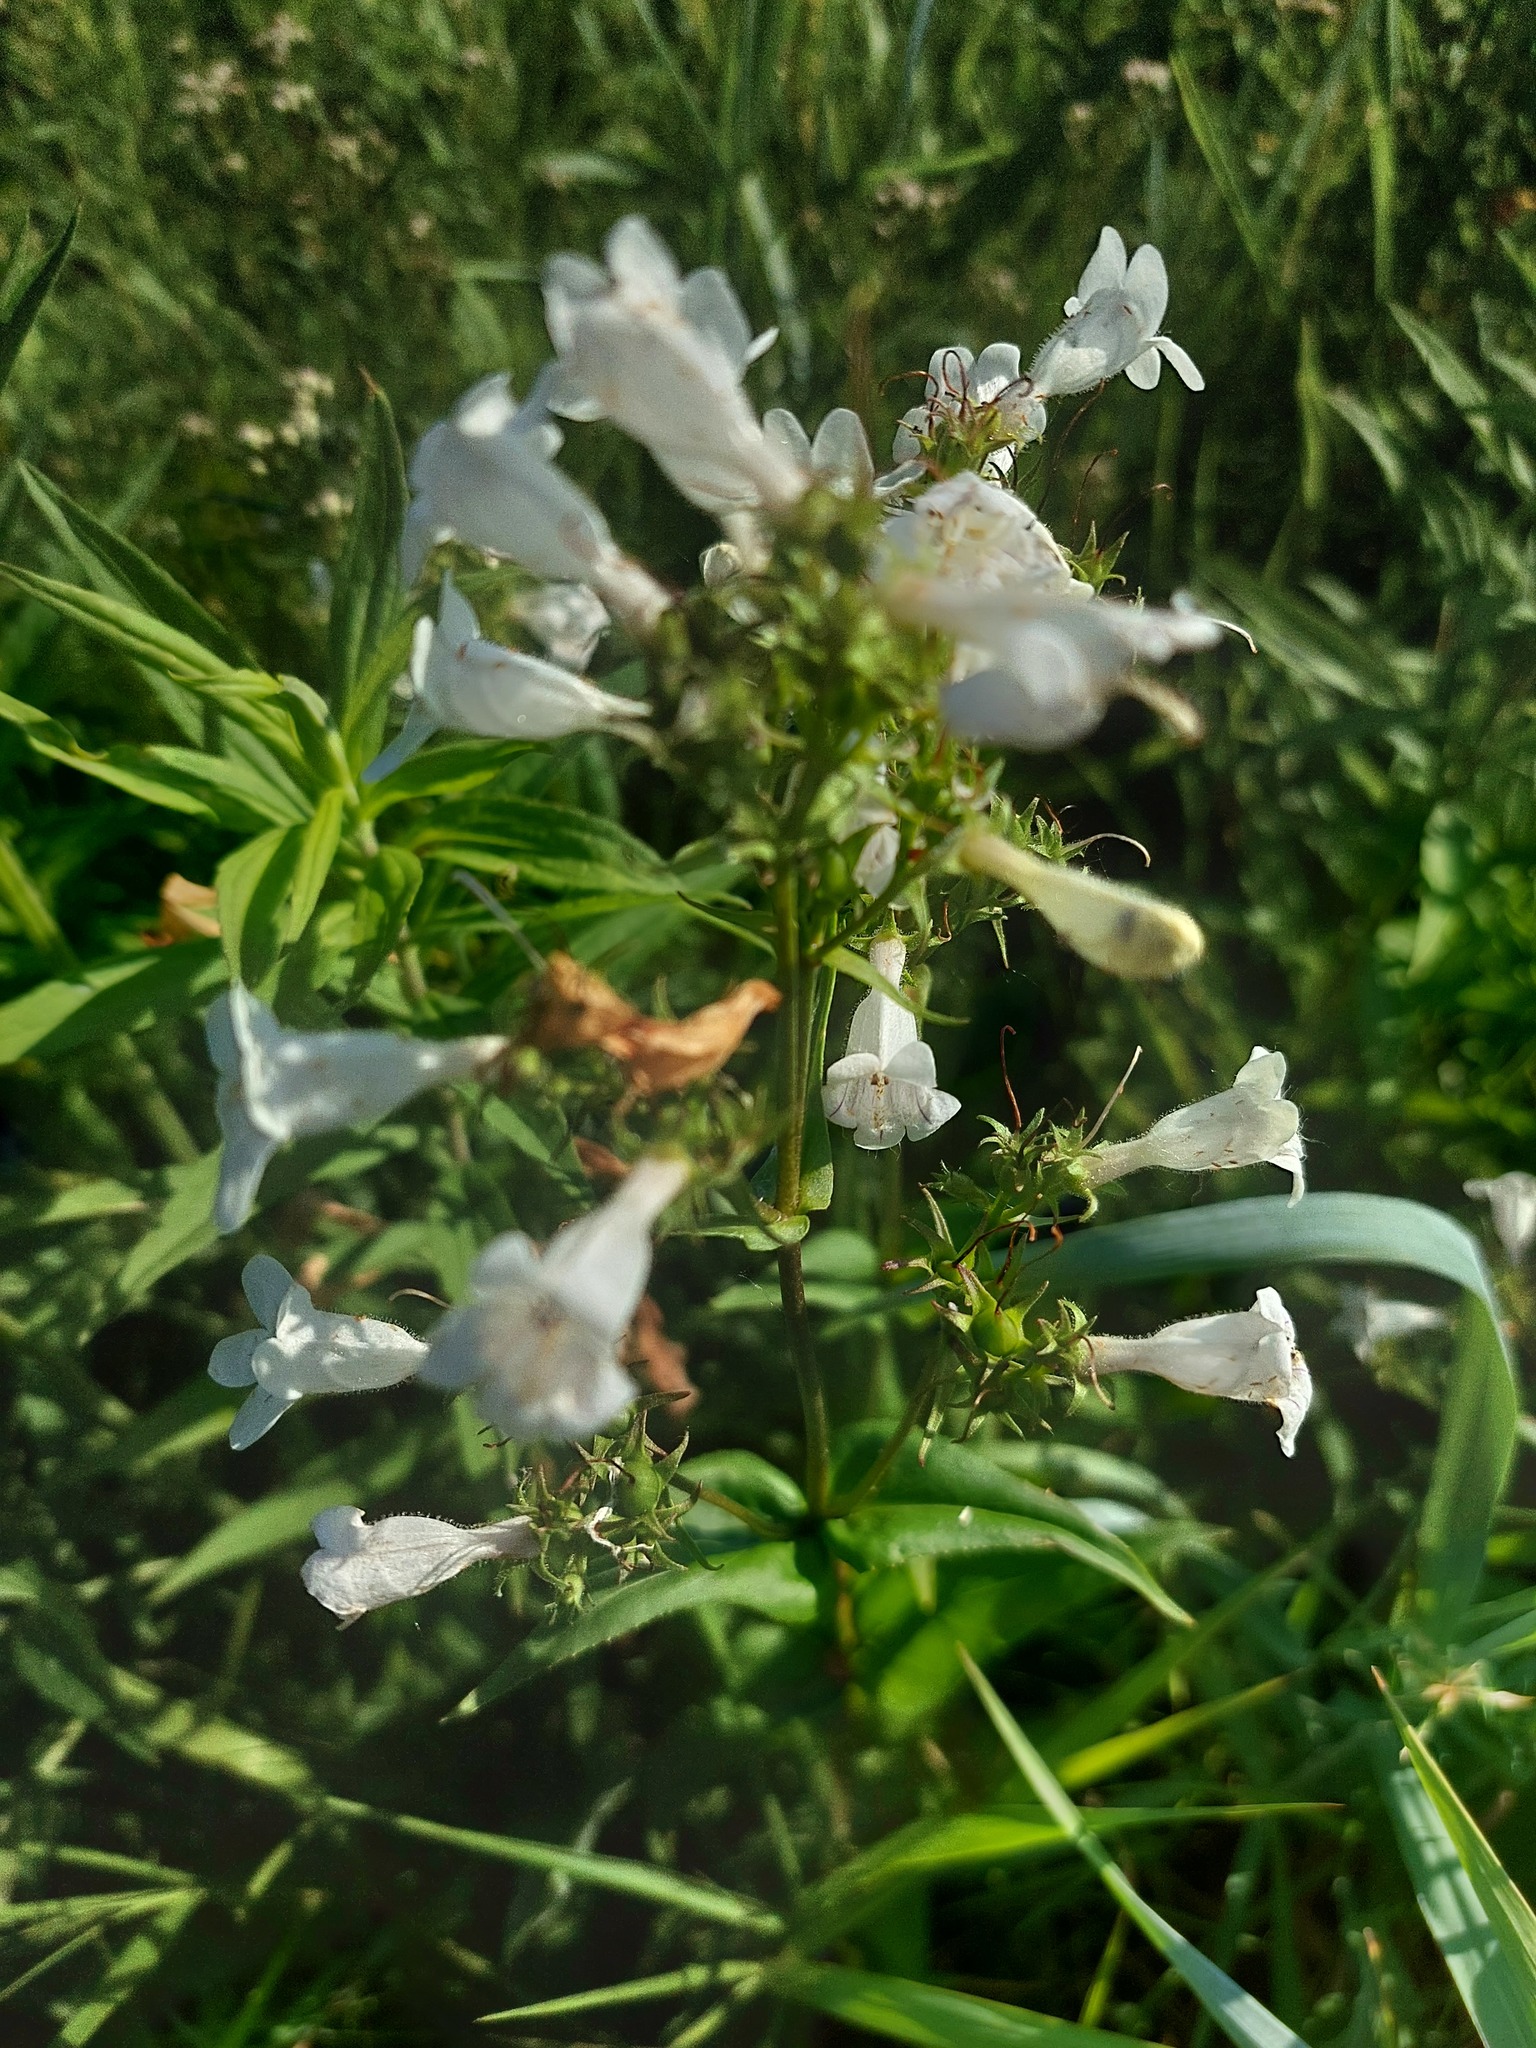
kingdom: Plantae
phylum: Tracheophyta
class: Magnoliopsida
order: Lamiales
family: Plantaginaceae
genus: Penstemon
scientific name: Penstemon digitalis
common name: Foxglove beardtongue
